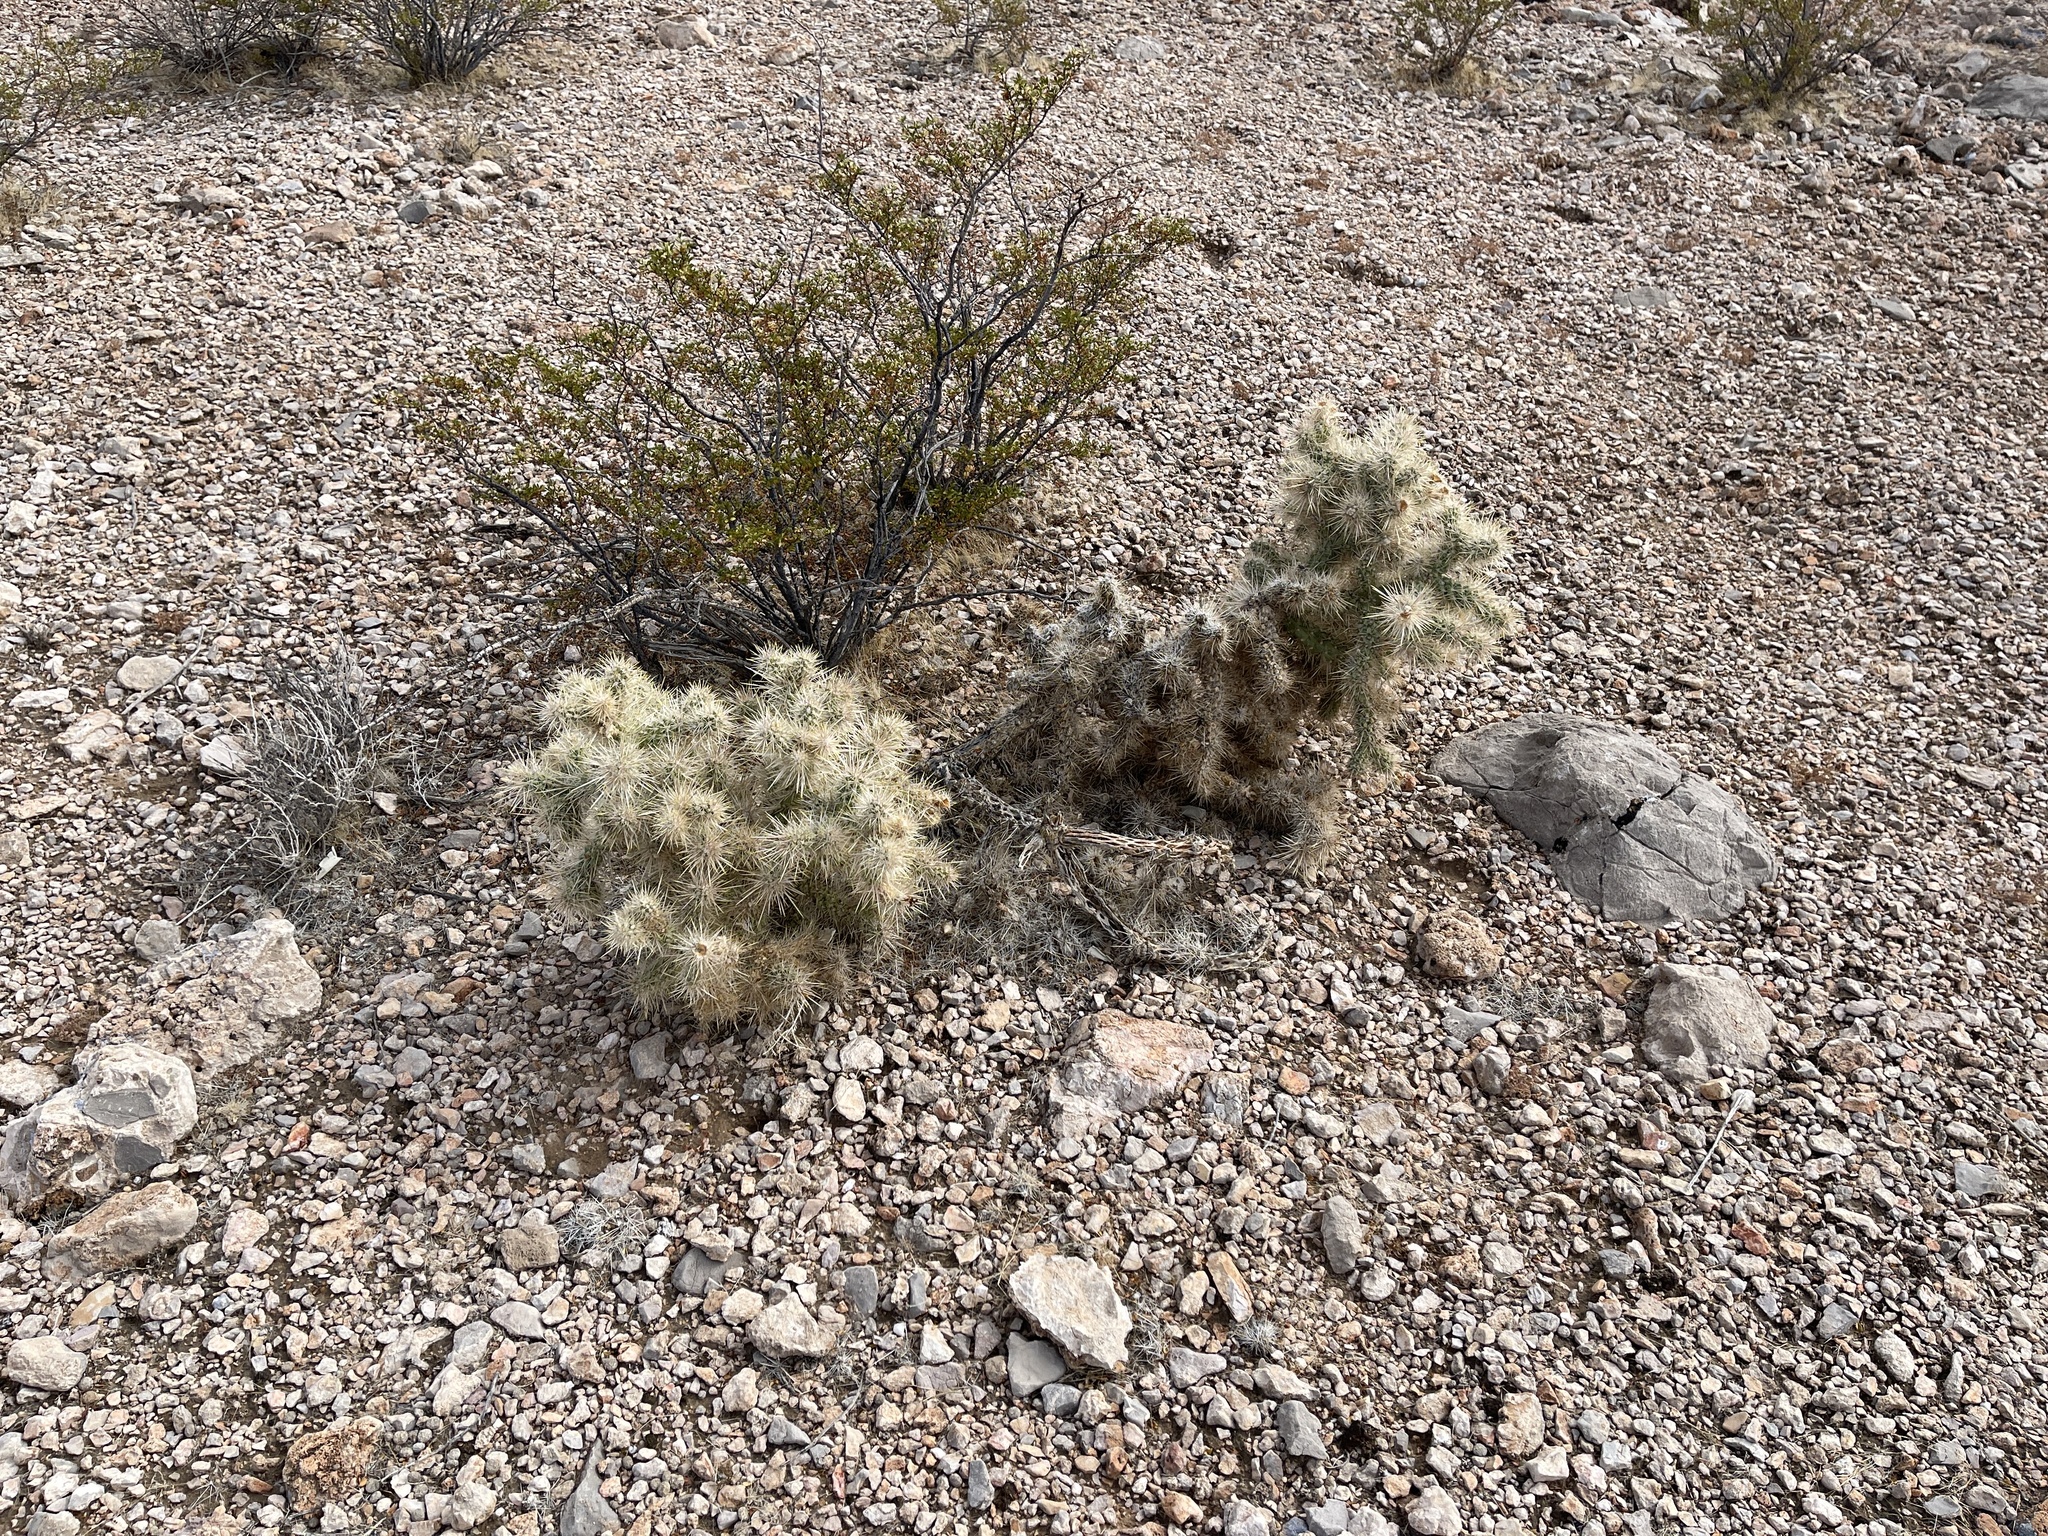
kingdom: Plantae
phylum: Tracheophyta
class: Magnoliopsida
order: Caryophyllales
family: Cactaceae
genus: Cylindropuntia
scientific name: Cylindropuntia echinocarpa
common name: Ground cholla
